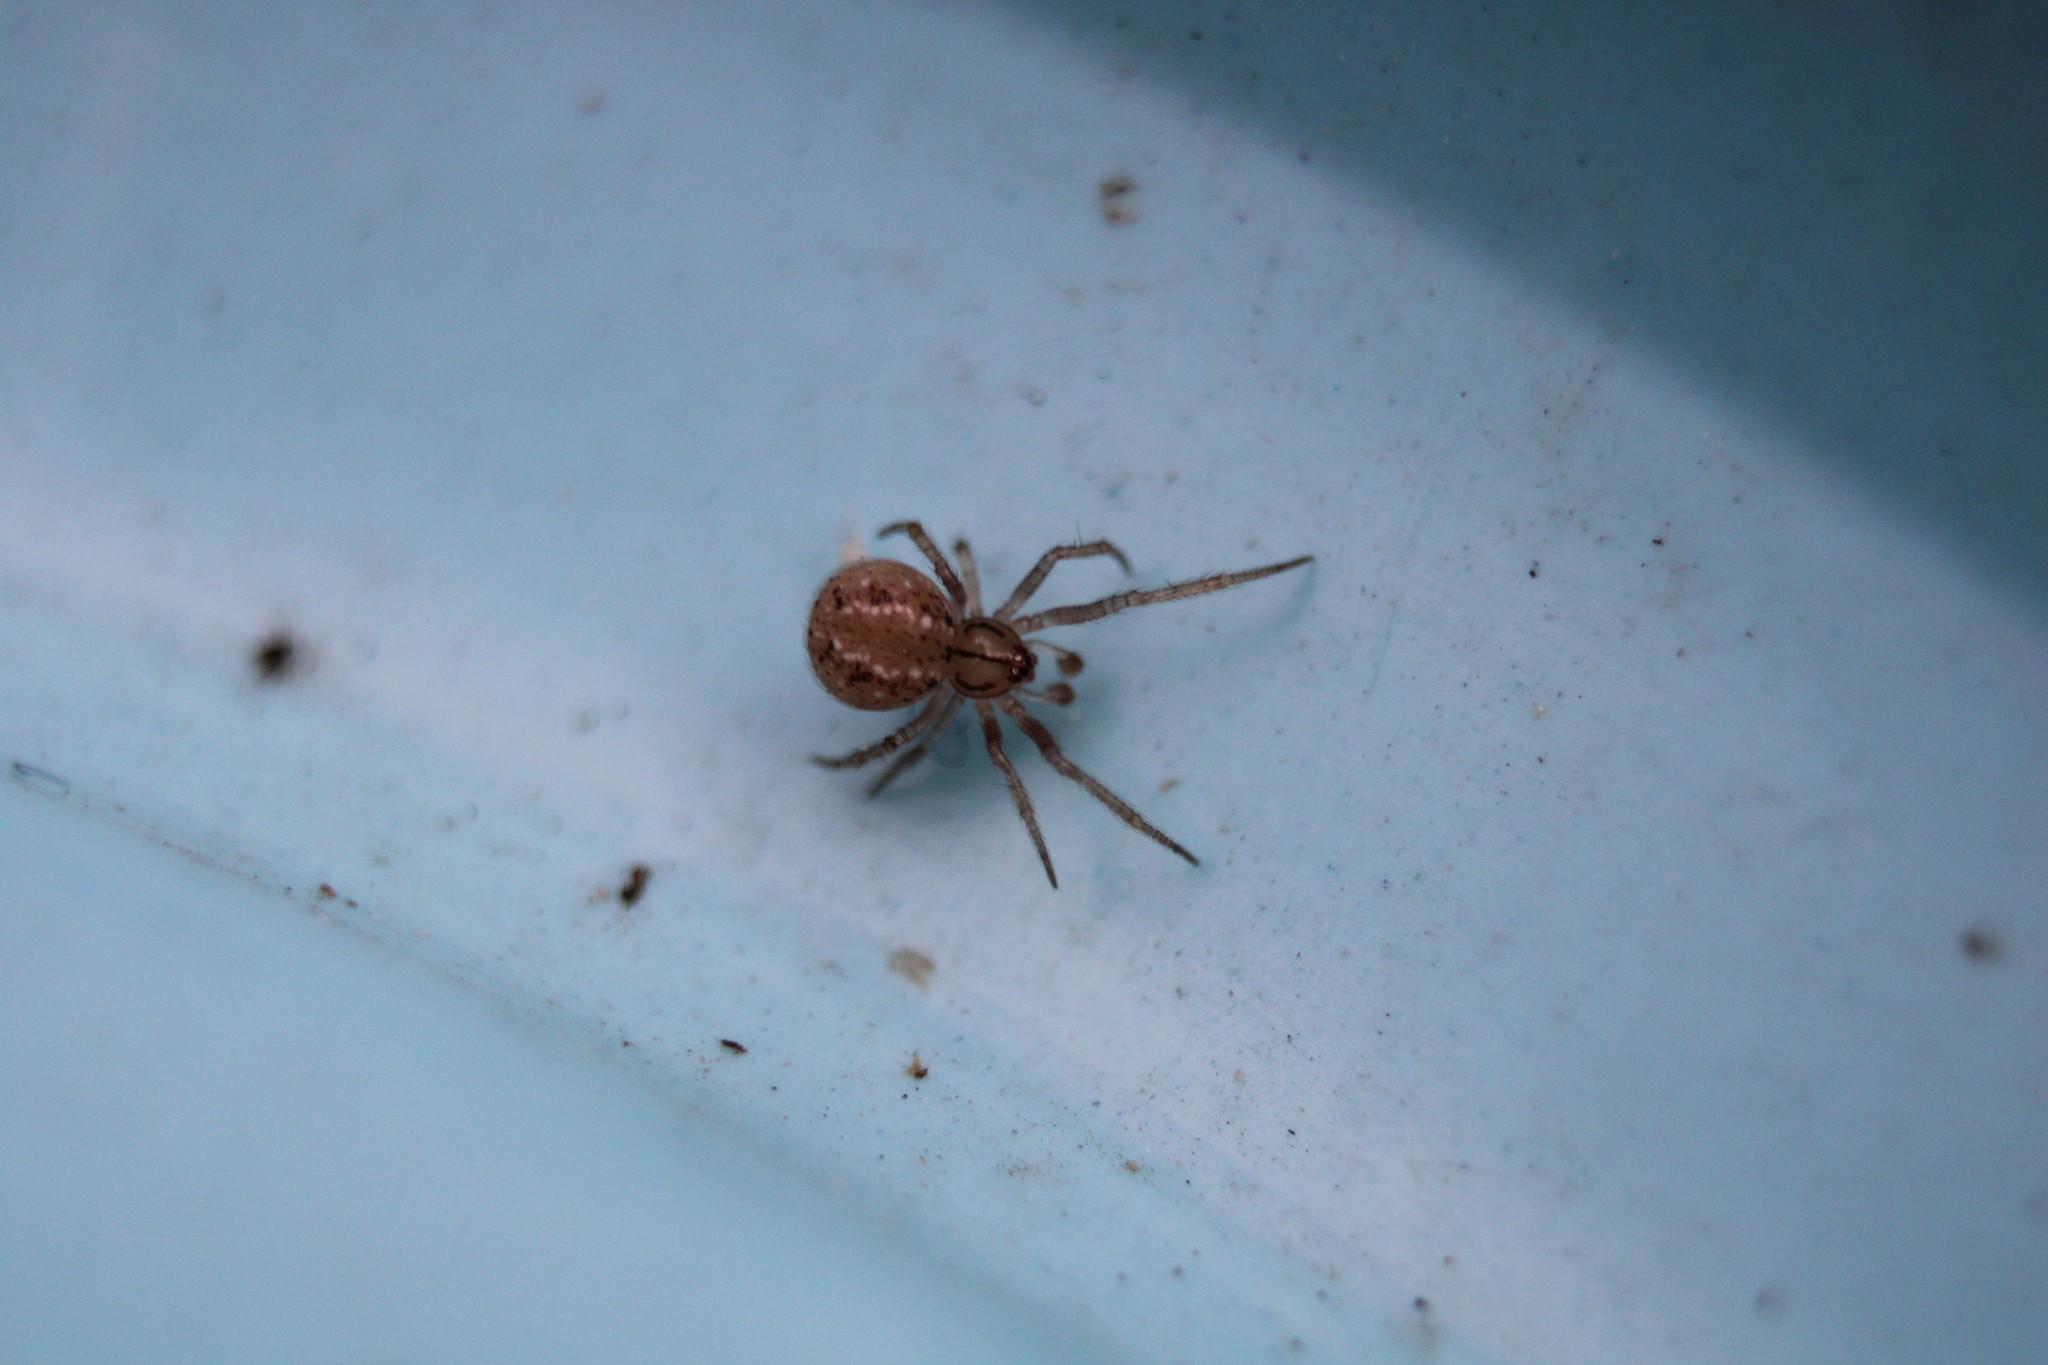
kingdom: Animalia
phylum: Arthropoda
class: Arachnida
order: Araneae
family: Theridiidae
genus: Theridion
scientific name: Theridion neshamini
